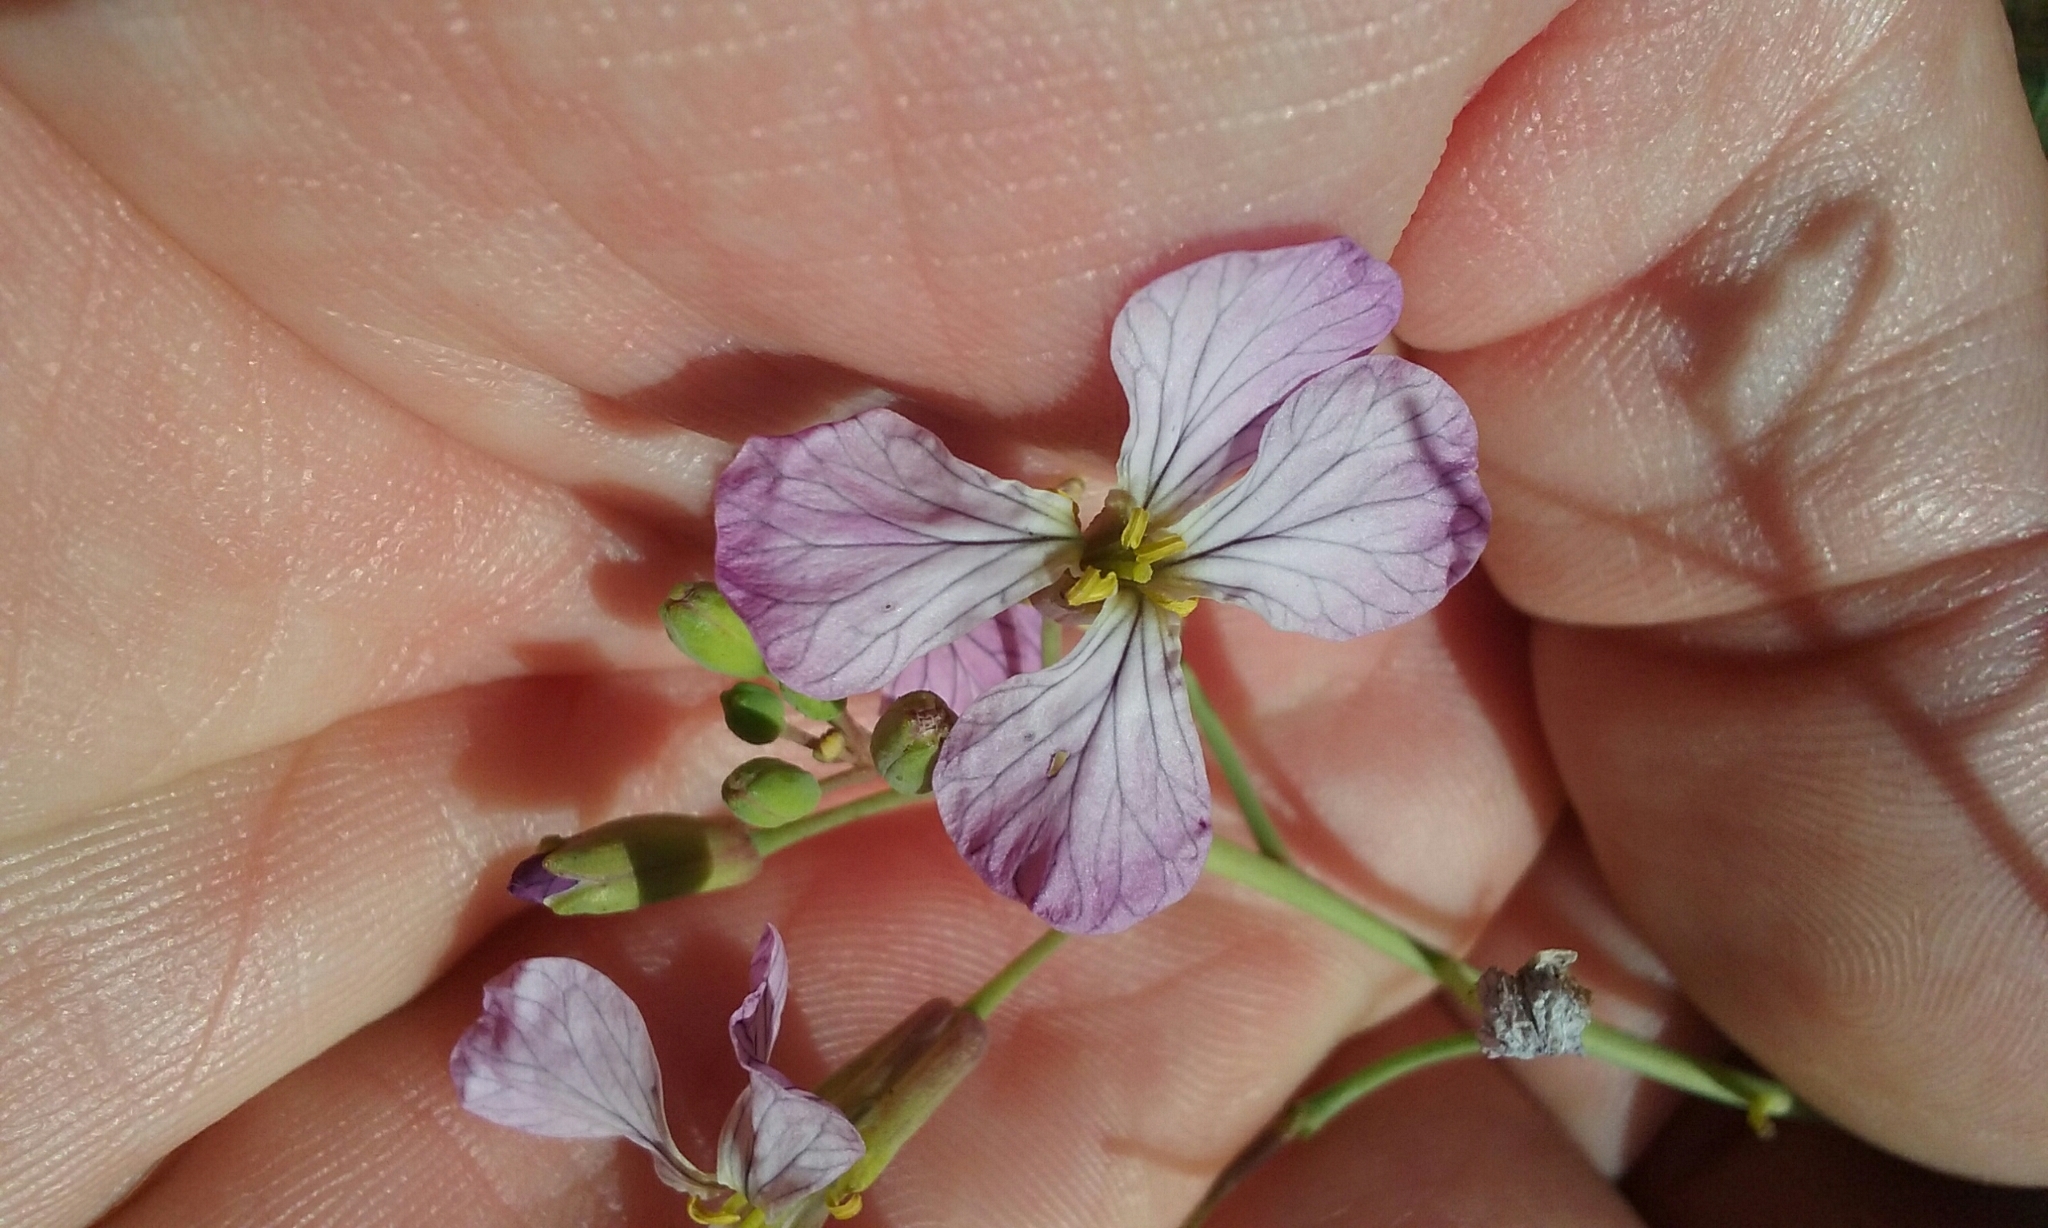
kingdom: Plantae
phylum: Tracheophyta
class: Magnoliopsida
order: Brassicales
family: Brassicaceae
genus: Raphanus
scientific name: Raphanus sativus
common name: Cultivated radish
